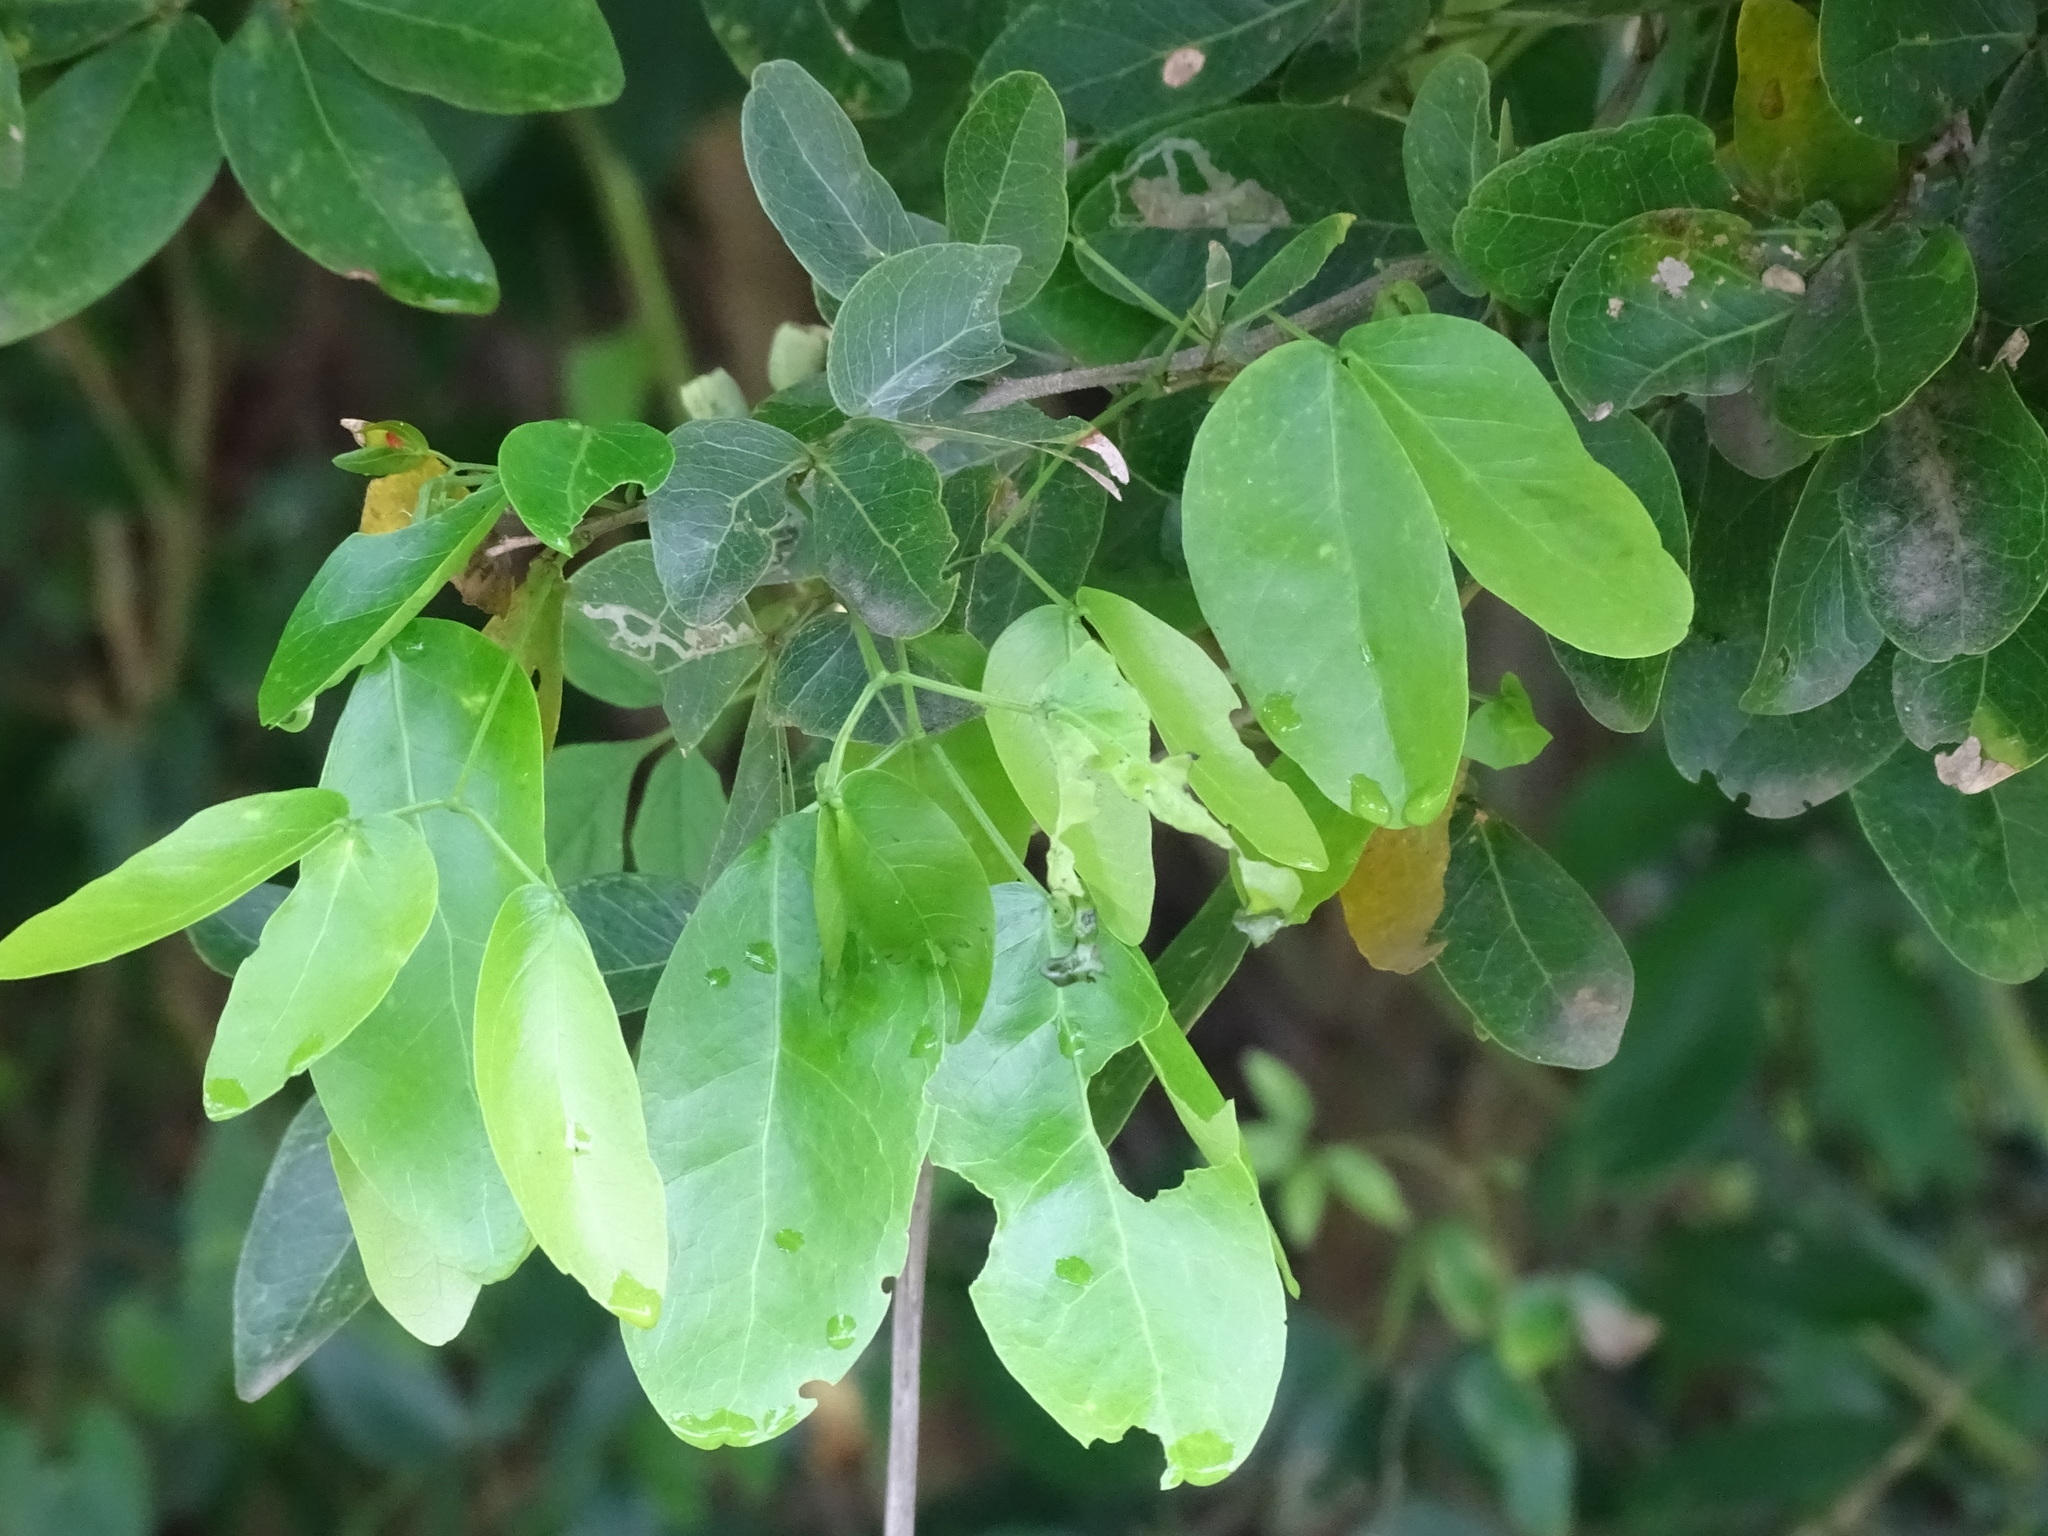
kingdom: Plantae
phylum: Tracheophyta
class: Magnoliopsida
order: Fabales
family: Fabaceae
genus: Pithecellobium
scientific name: Pithecellobium lanceolatum
